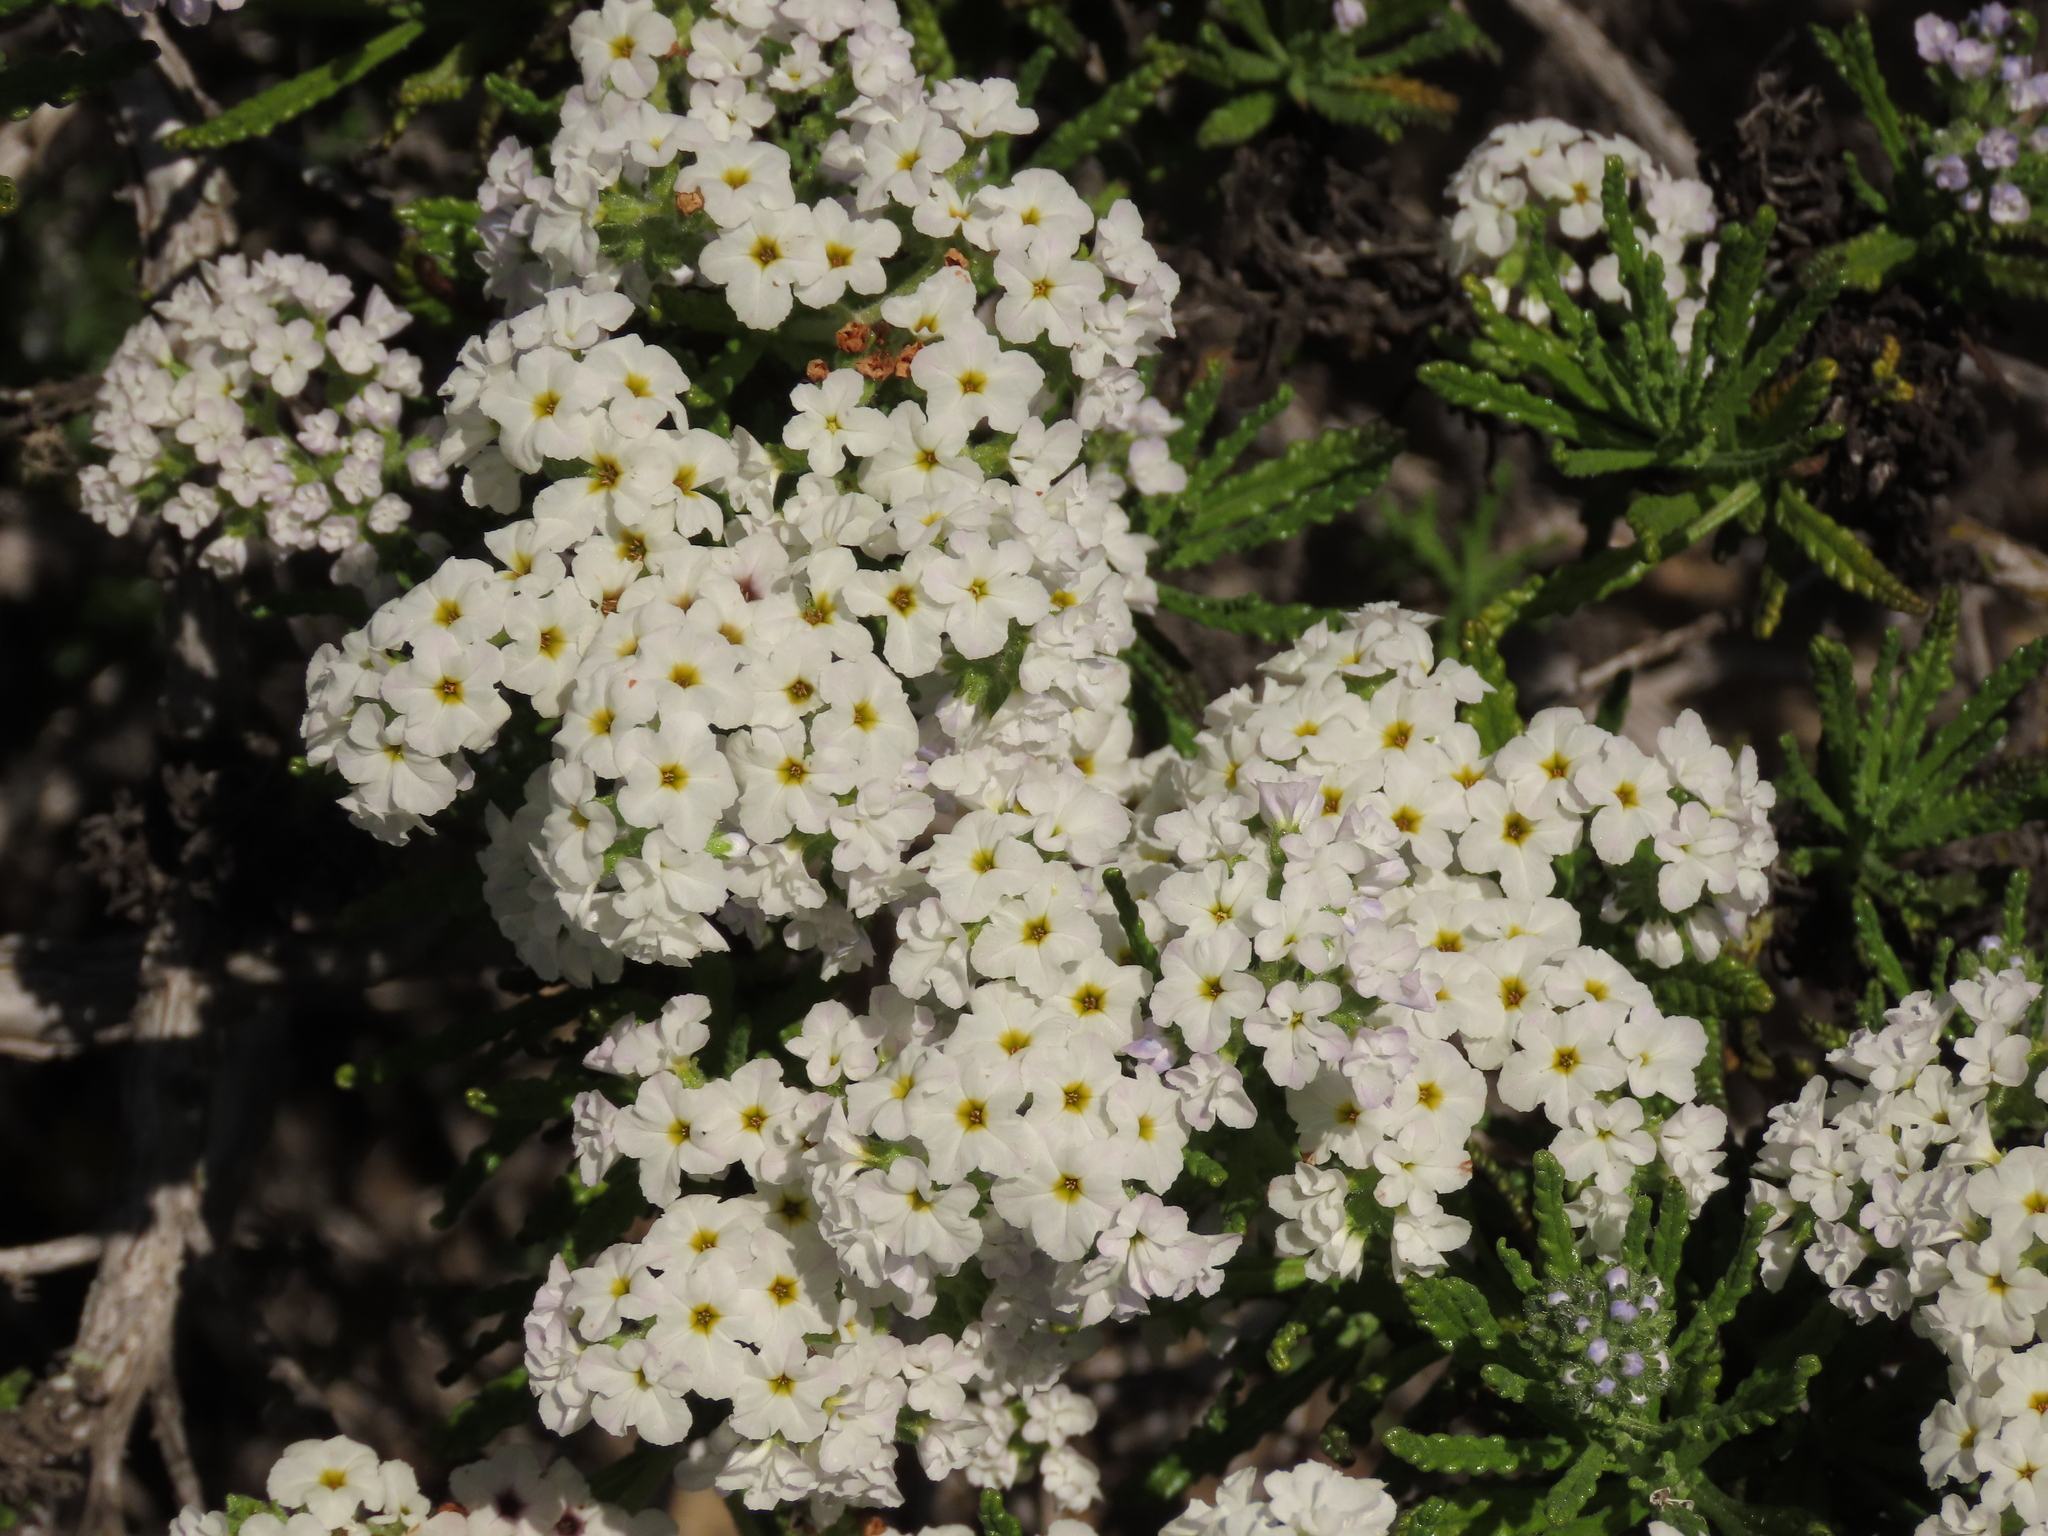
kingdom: Plantae
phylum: Tracheophyta
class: Magnoliopsida
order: Boraginales
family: Heliotropiaceae
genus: Heliotropium
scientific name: Heliotropium sinuatum
